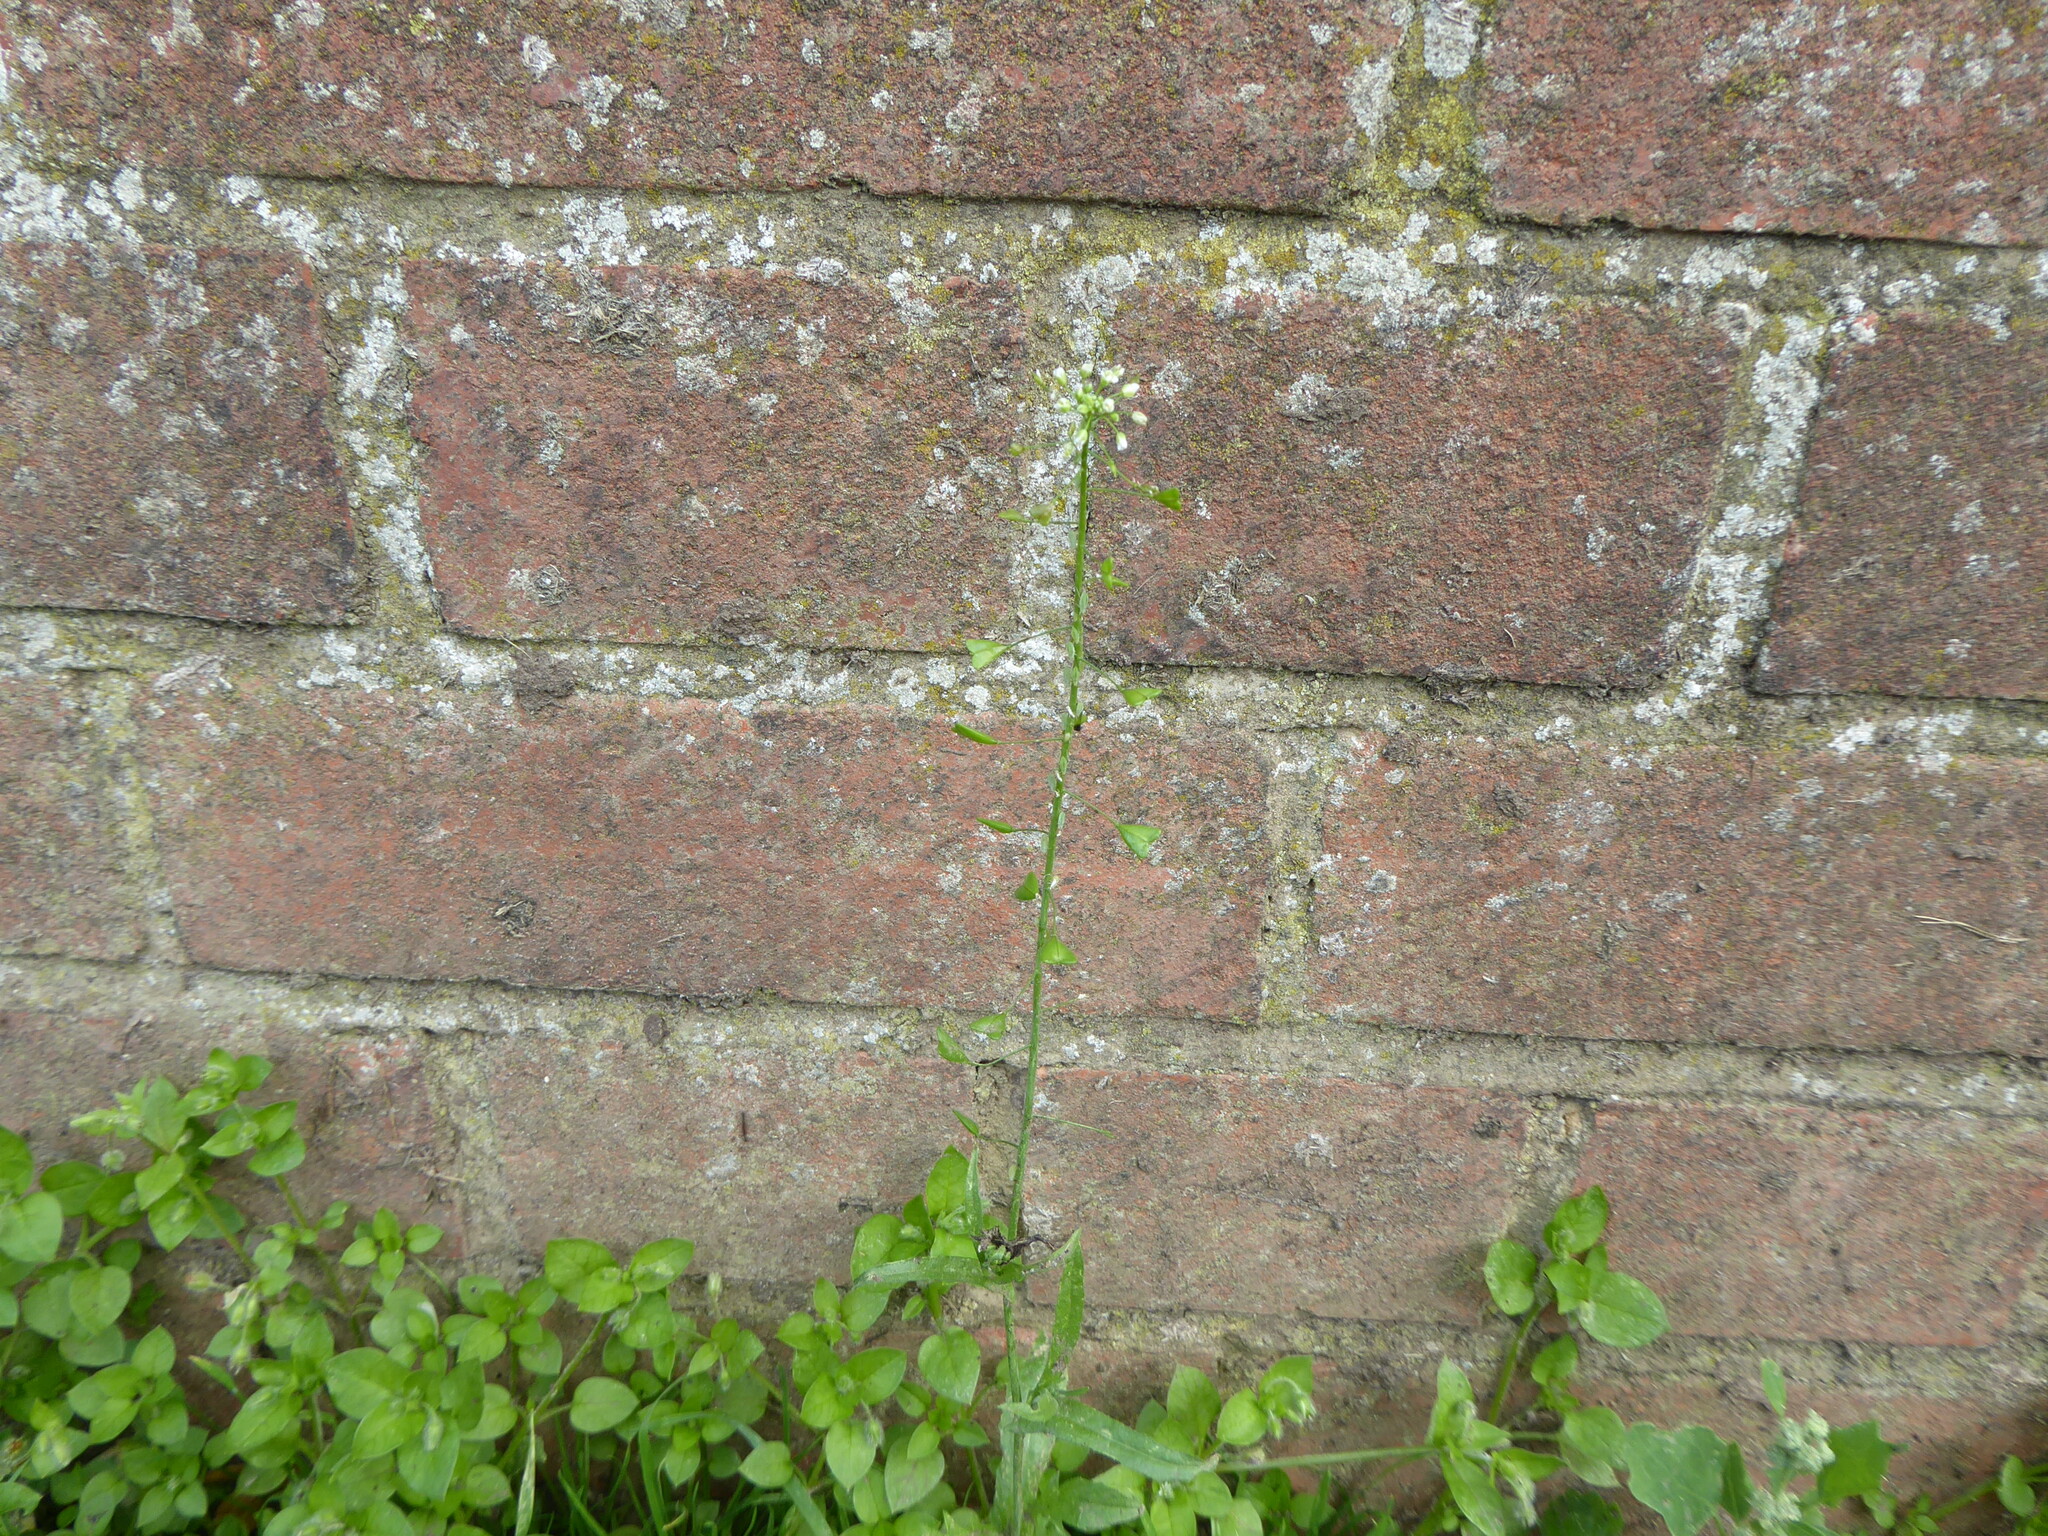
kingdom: Plantae
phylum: Tracheophyta
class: Magnoliopsida
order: Brassicales
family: Brassicaceae
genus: Capsella
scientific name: Capsella bursa-pastoris
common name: Shepherd's purse
